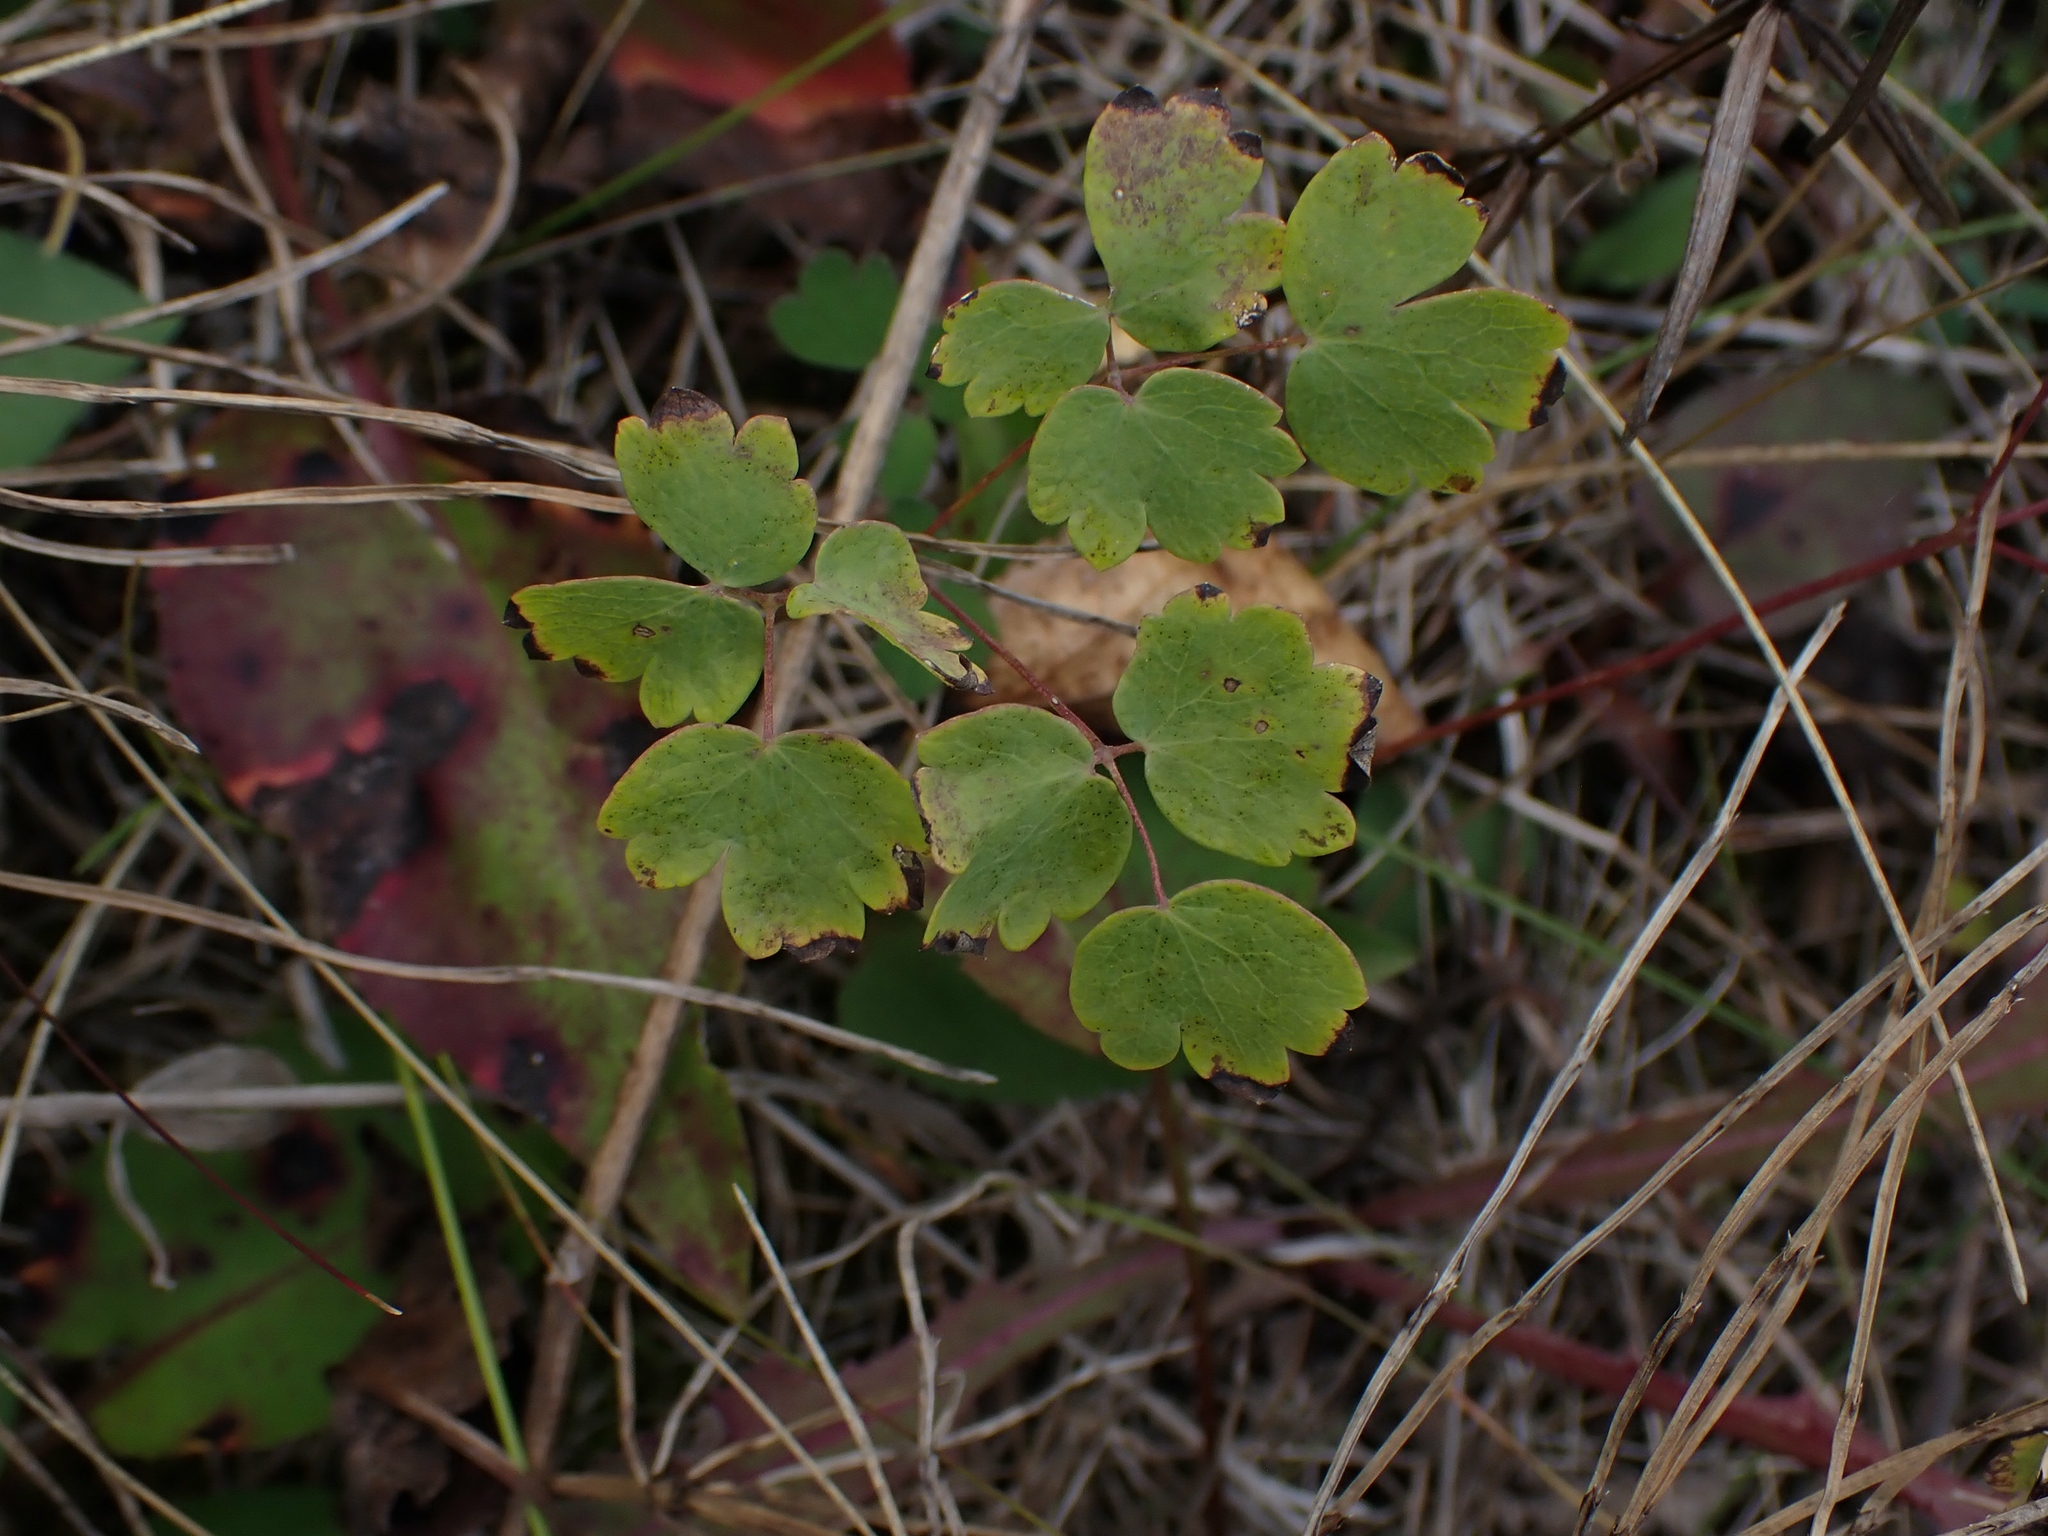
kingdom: Plantae
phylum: Tracheophyta
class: Magnoliopsida
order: Ranunculales
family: Ranunculaceae
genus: Thalictrum
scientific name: Thalictrum venulosum
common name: Early meadow-rue
